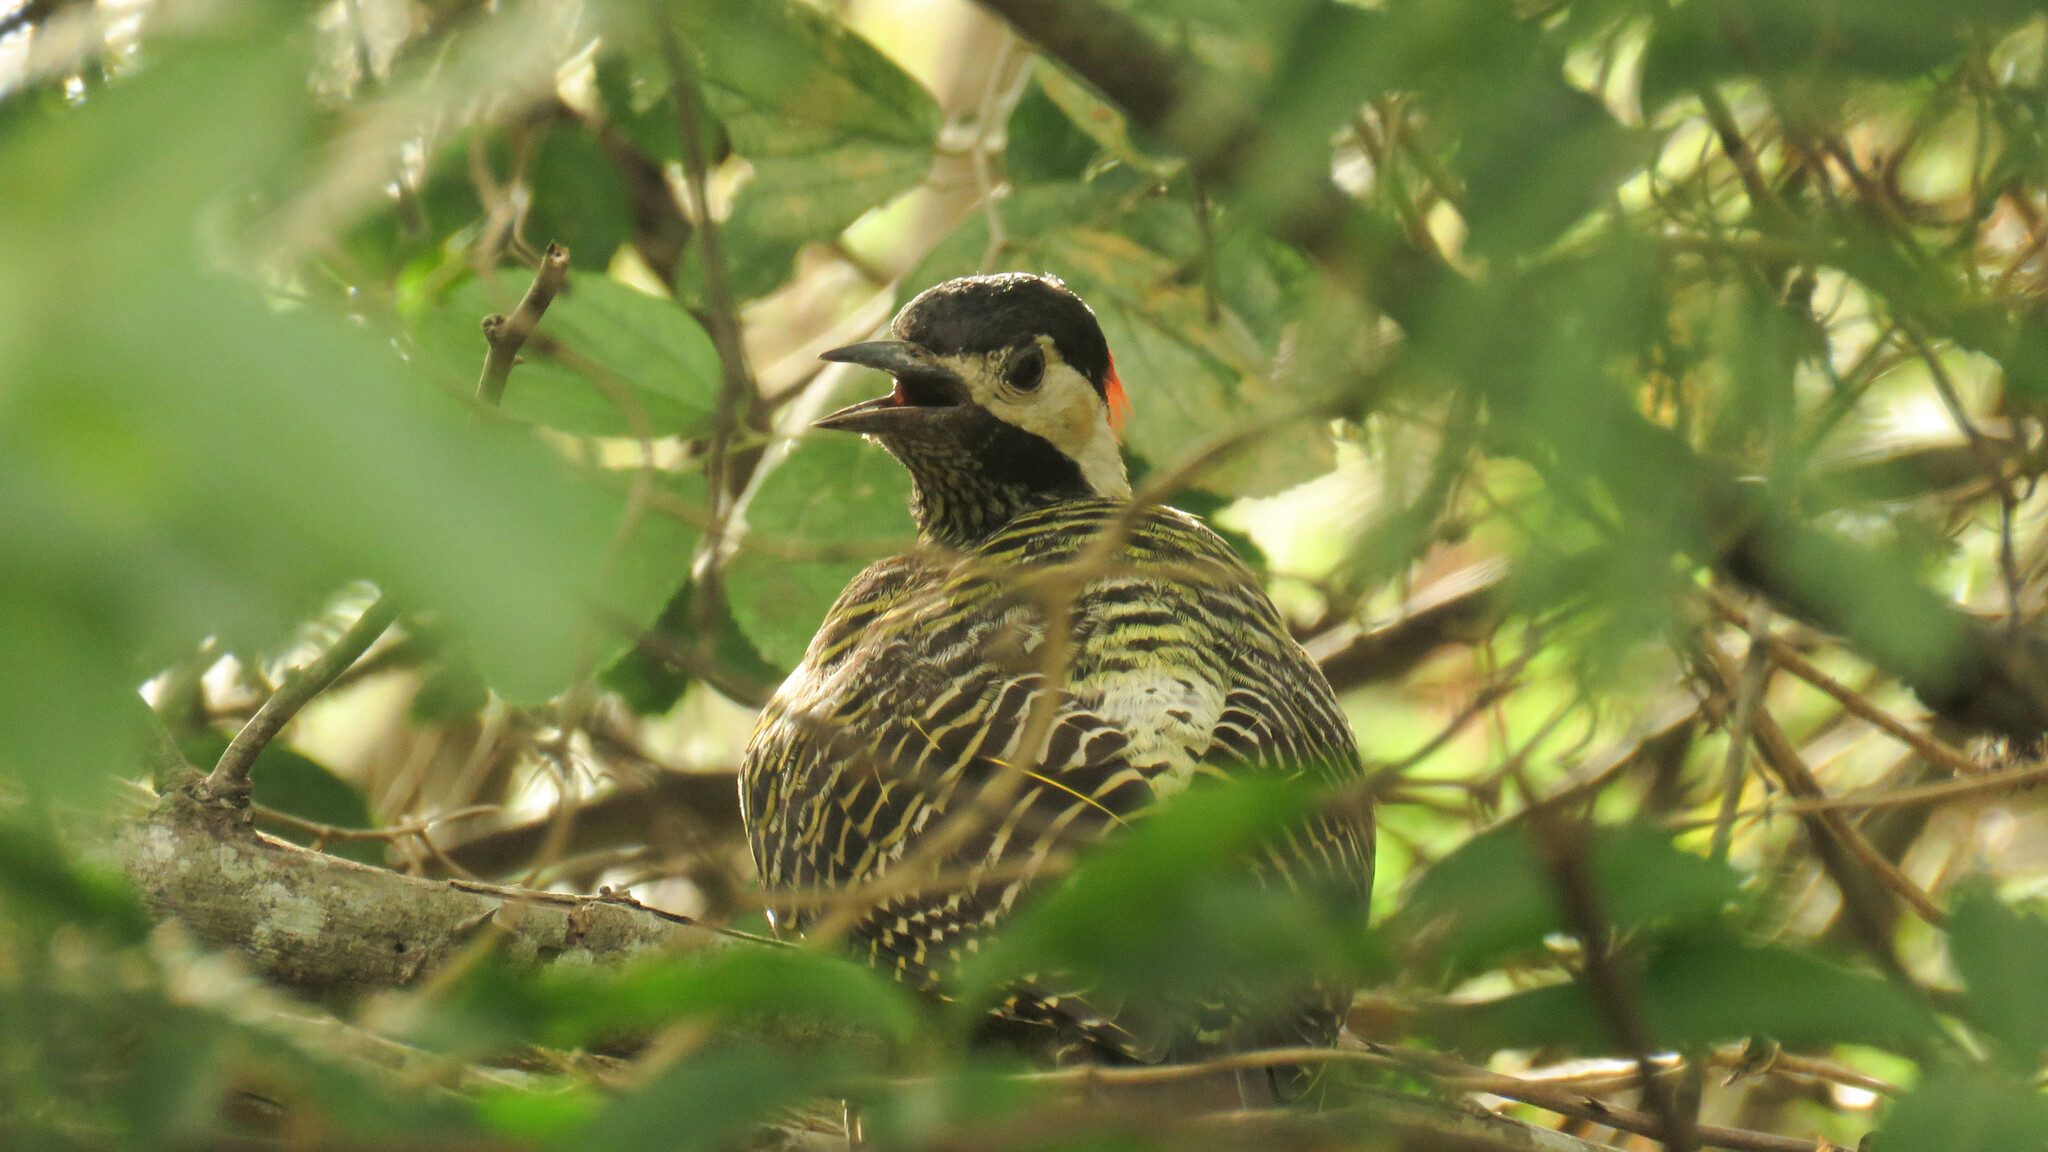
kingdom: Animalia
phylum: Chordata
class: Aves
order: Piciformes
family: Picidae
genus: Colaptes
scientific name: Colaptes melanochloros
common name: Green-barred woodpecker
